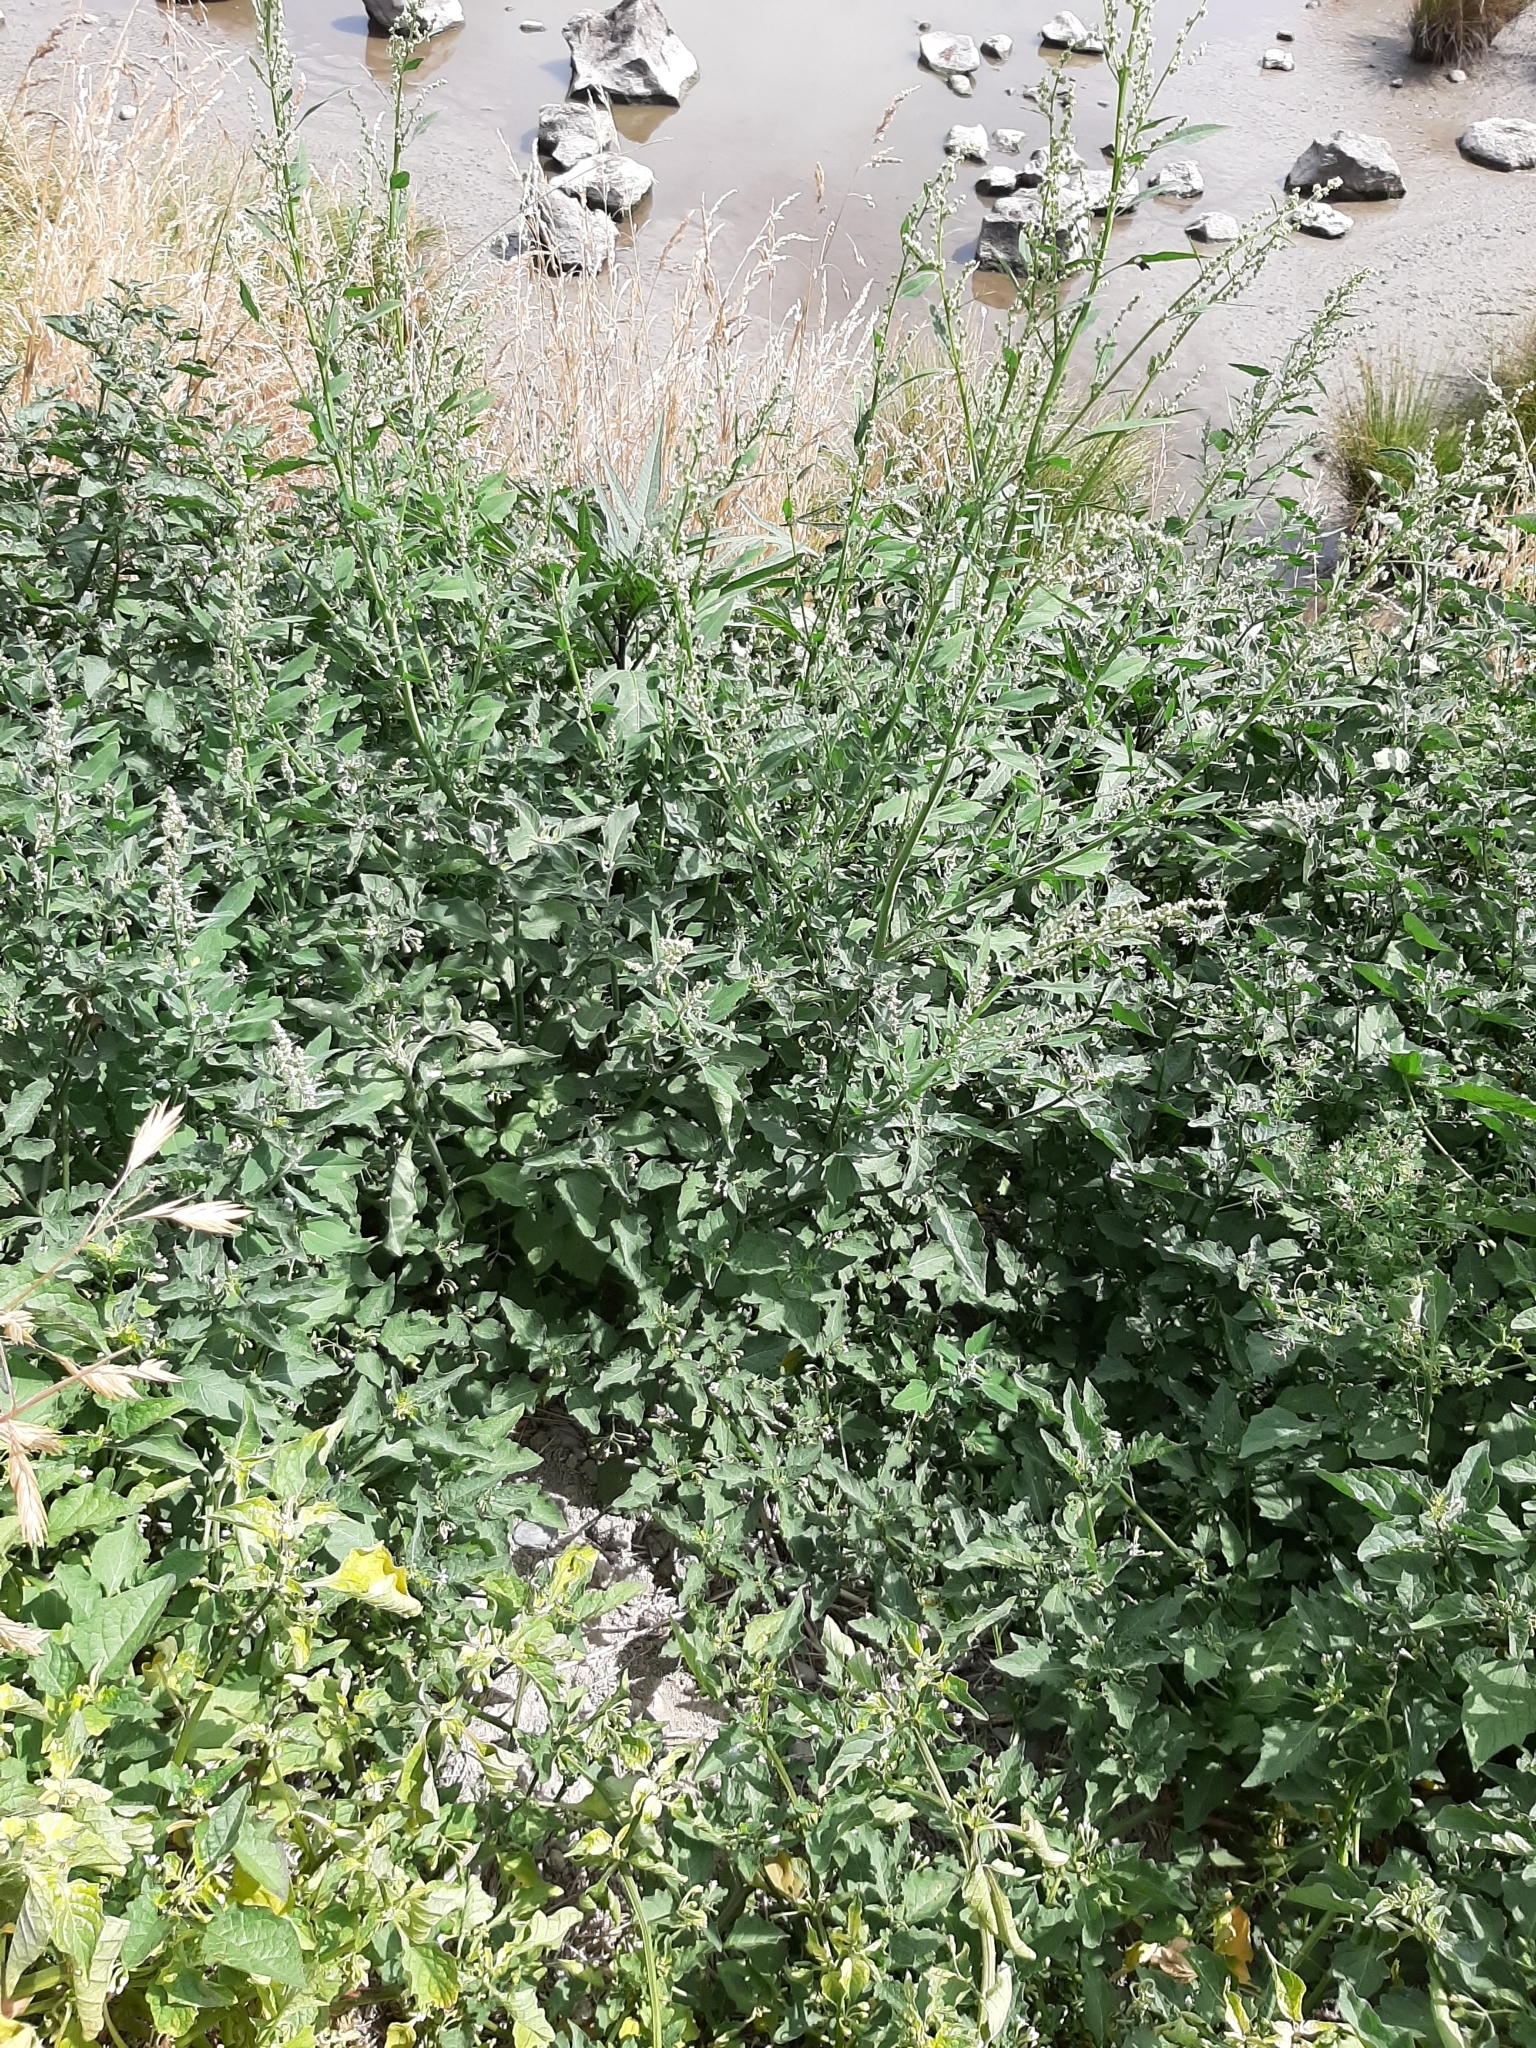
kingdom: Plantae
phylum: Tracheophyta
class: Magnoliopsida
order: Caryophyllales
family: Amaranthaceae
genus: Chenopodium
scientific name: Chenopodium album
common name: Fat-hen
